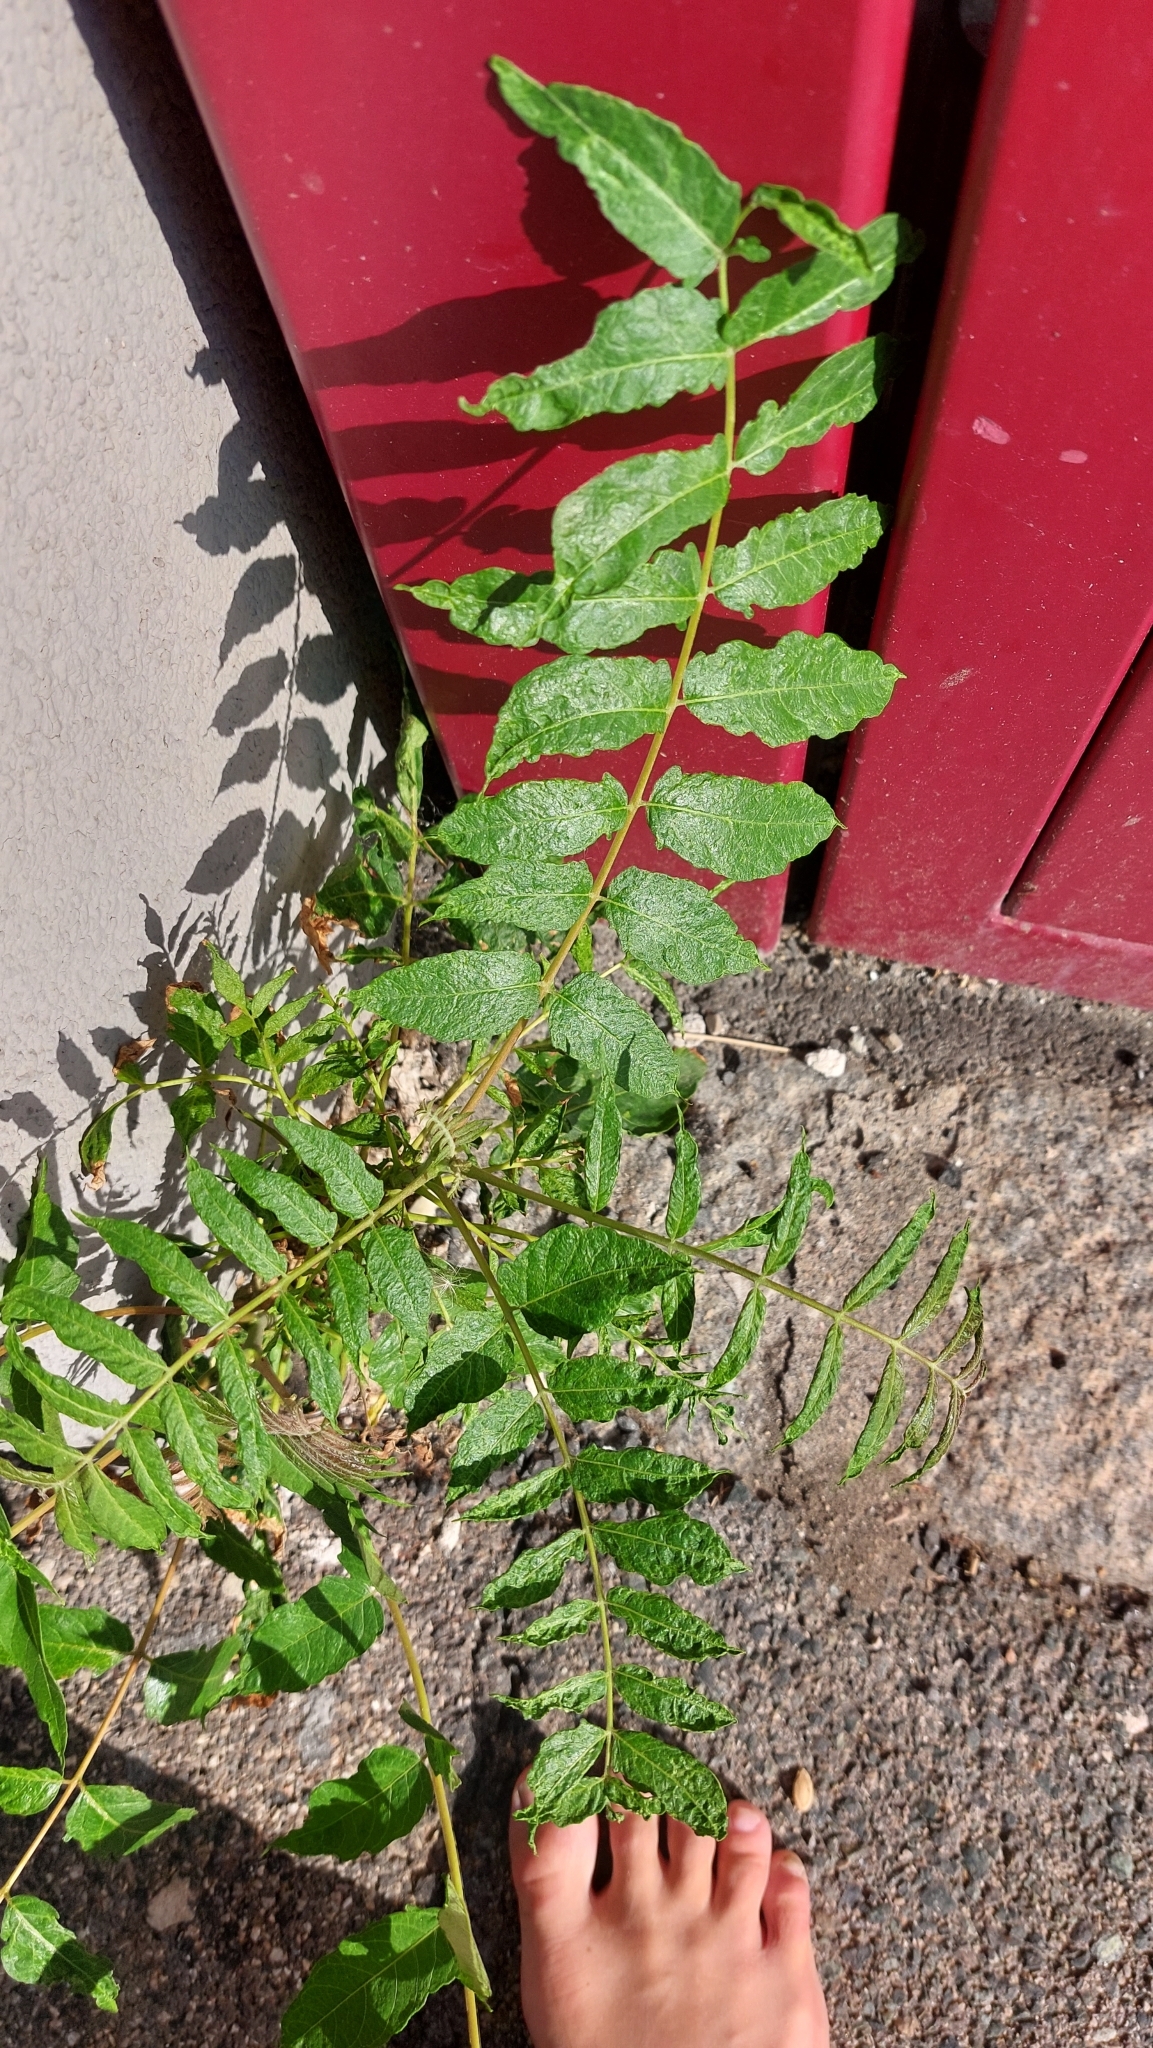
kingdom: Plantae
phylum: Tracheophyta
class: Magnoliopsida
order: Sapindales
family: Simaroubaceae
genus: Ailanthus
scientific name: Ailanthus altissima
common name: Tree-of-heaven
